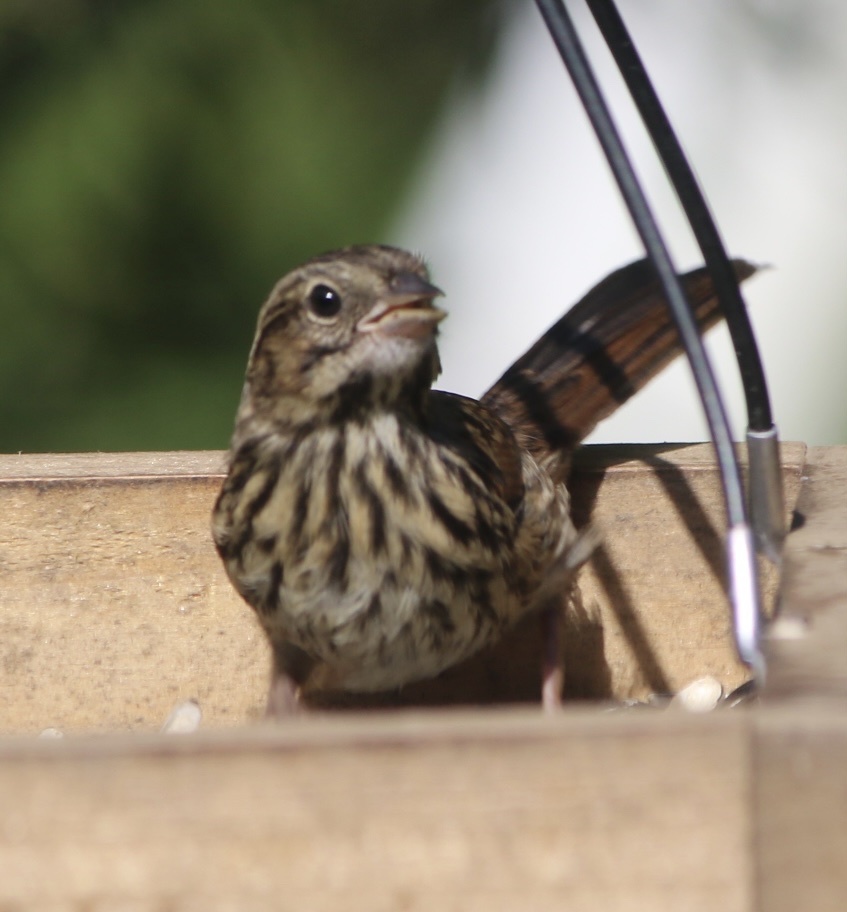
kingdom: Animalia
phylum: Chordata
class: Aves
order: Passeriformes
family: Passerellidae
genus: Melospiza
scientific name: Melospiza melodia
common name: Song sparrow
